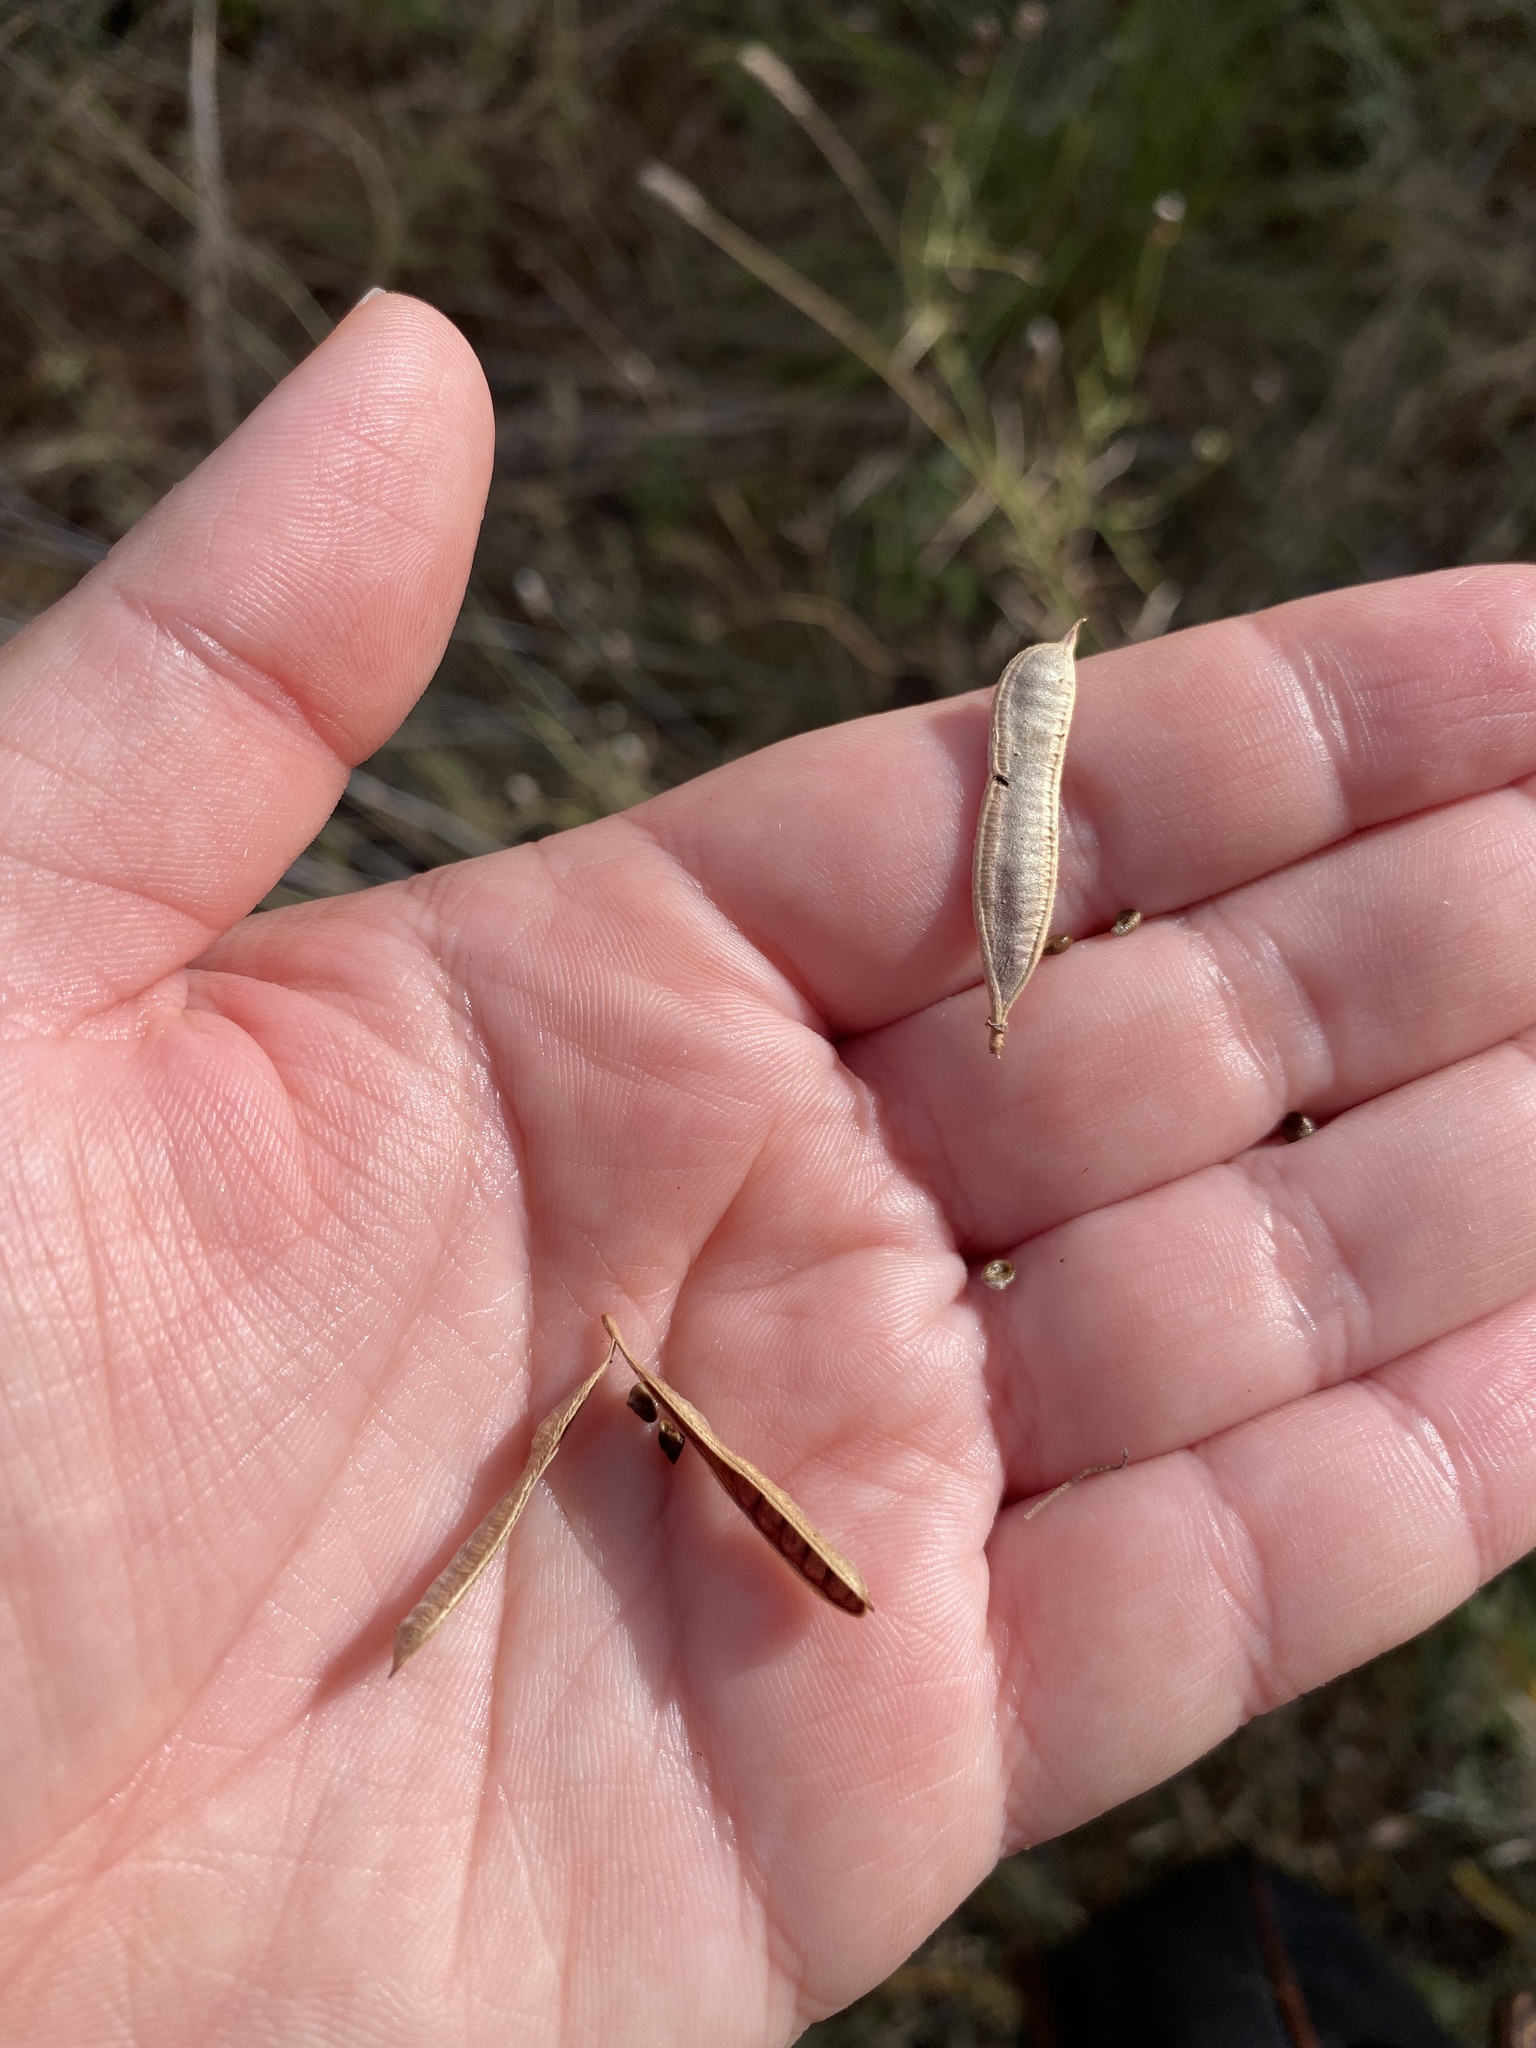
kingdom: Plantae
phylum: Tracheophyta
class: Magnoliopsida
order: Fabales
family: Fabaceae
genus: Senna
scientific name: Senna roemeriana
